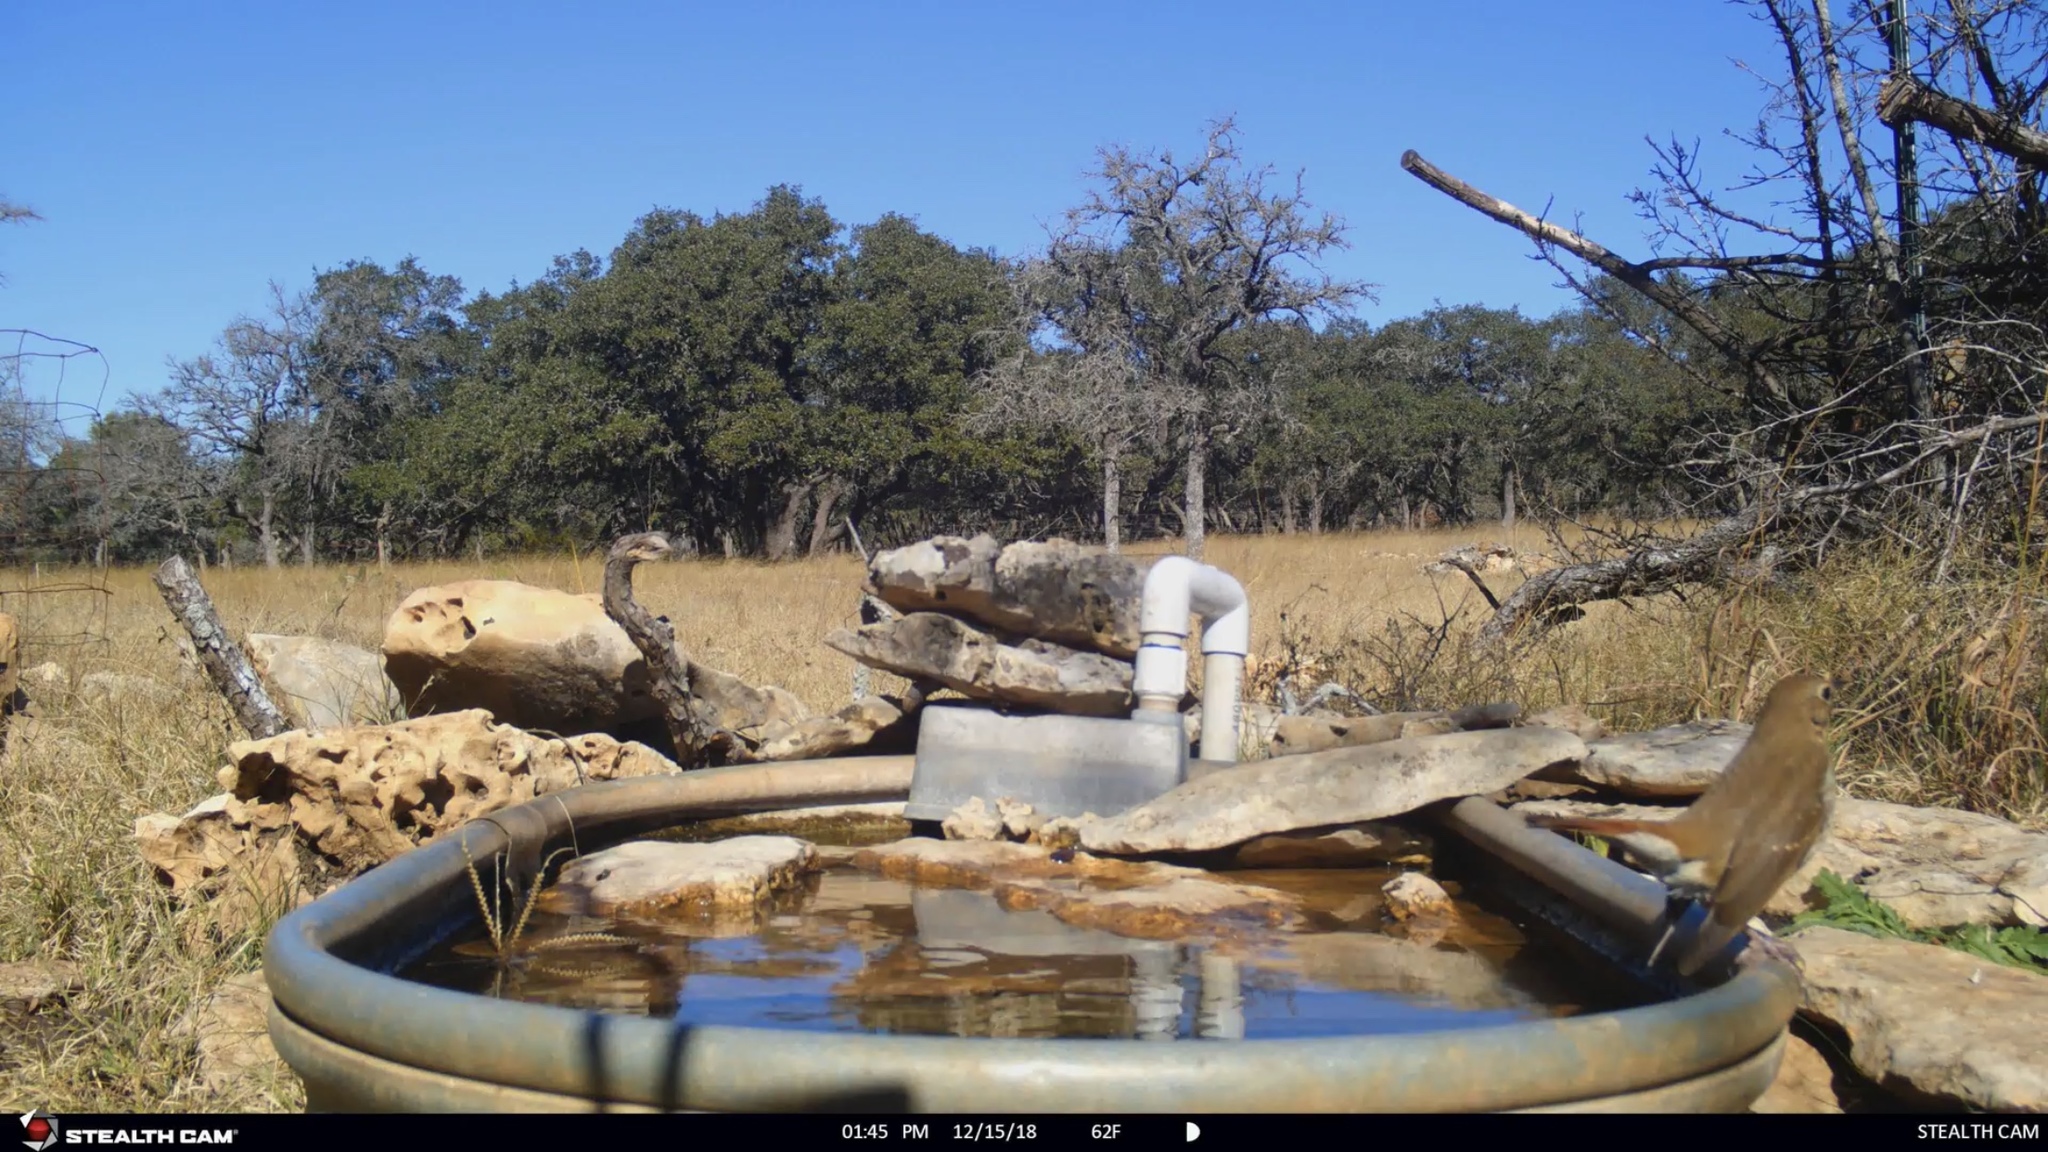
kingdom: Animalia
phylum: Chordata
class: Aves
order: Passeriformes
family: Turdidae
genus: Catharus
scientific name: Catharus guttatus
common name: Hermit thrush
